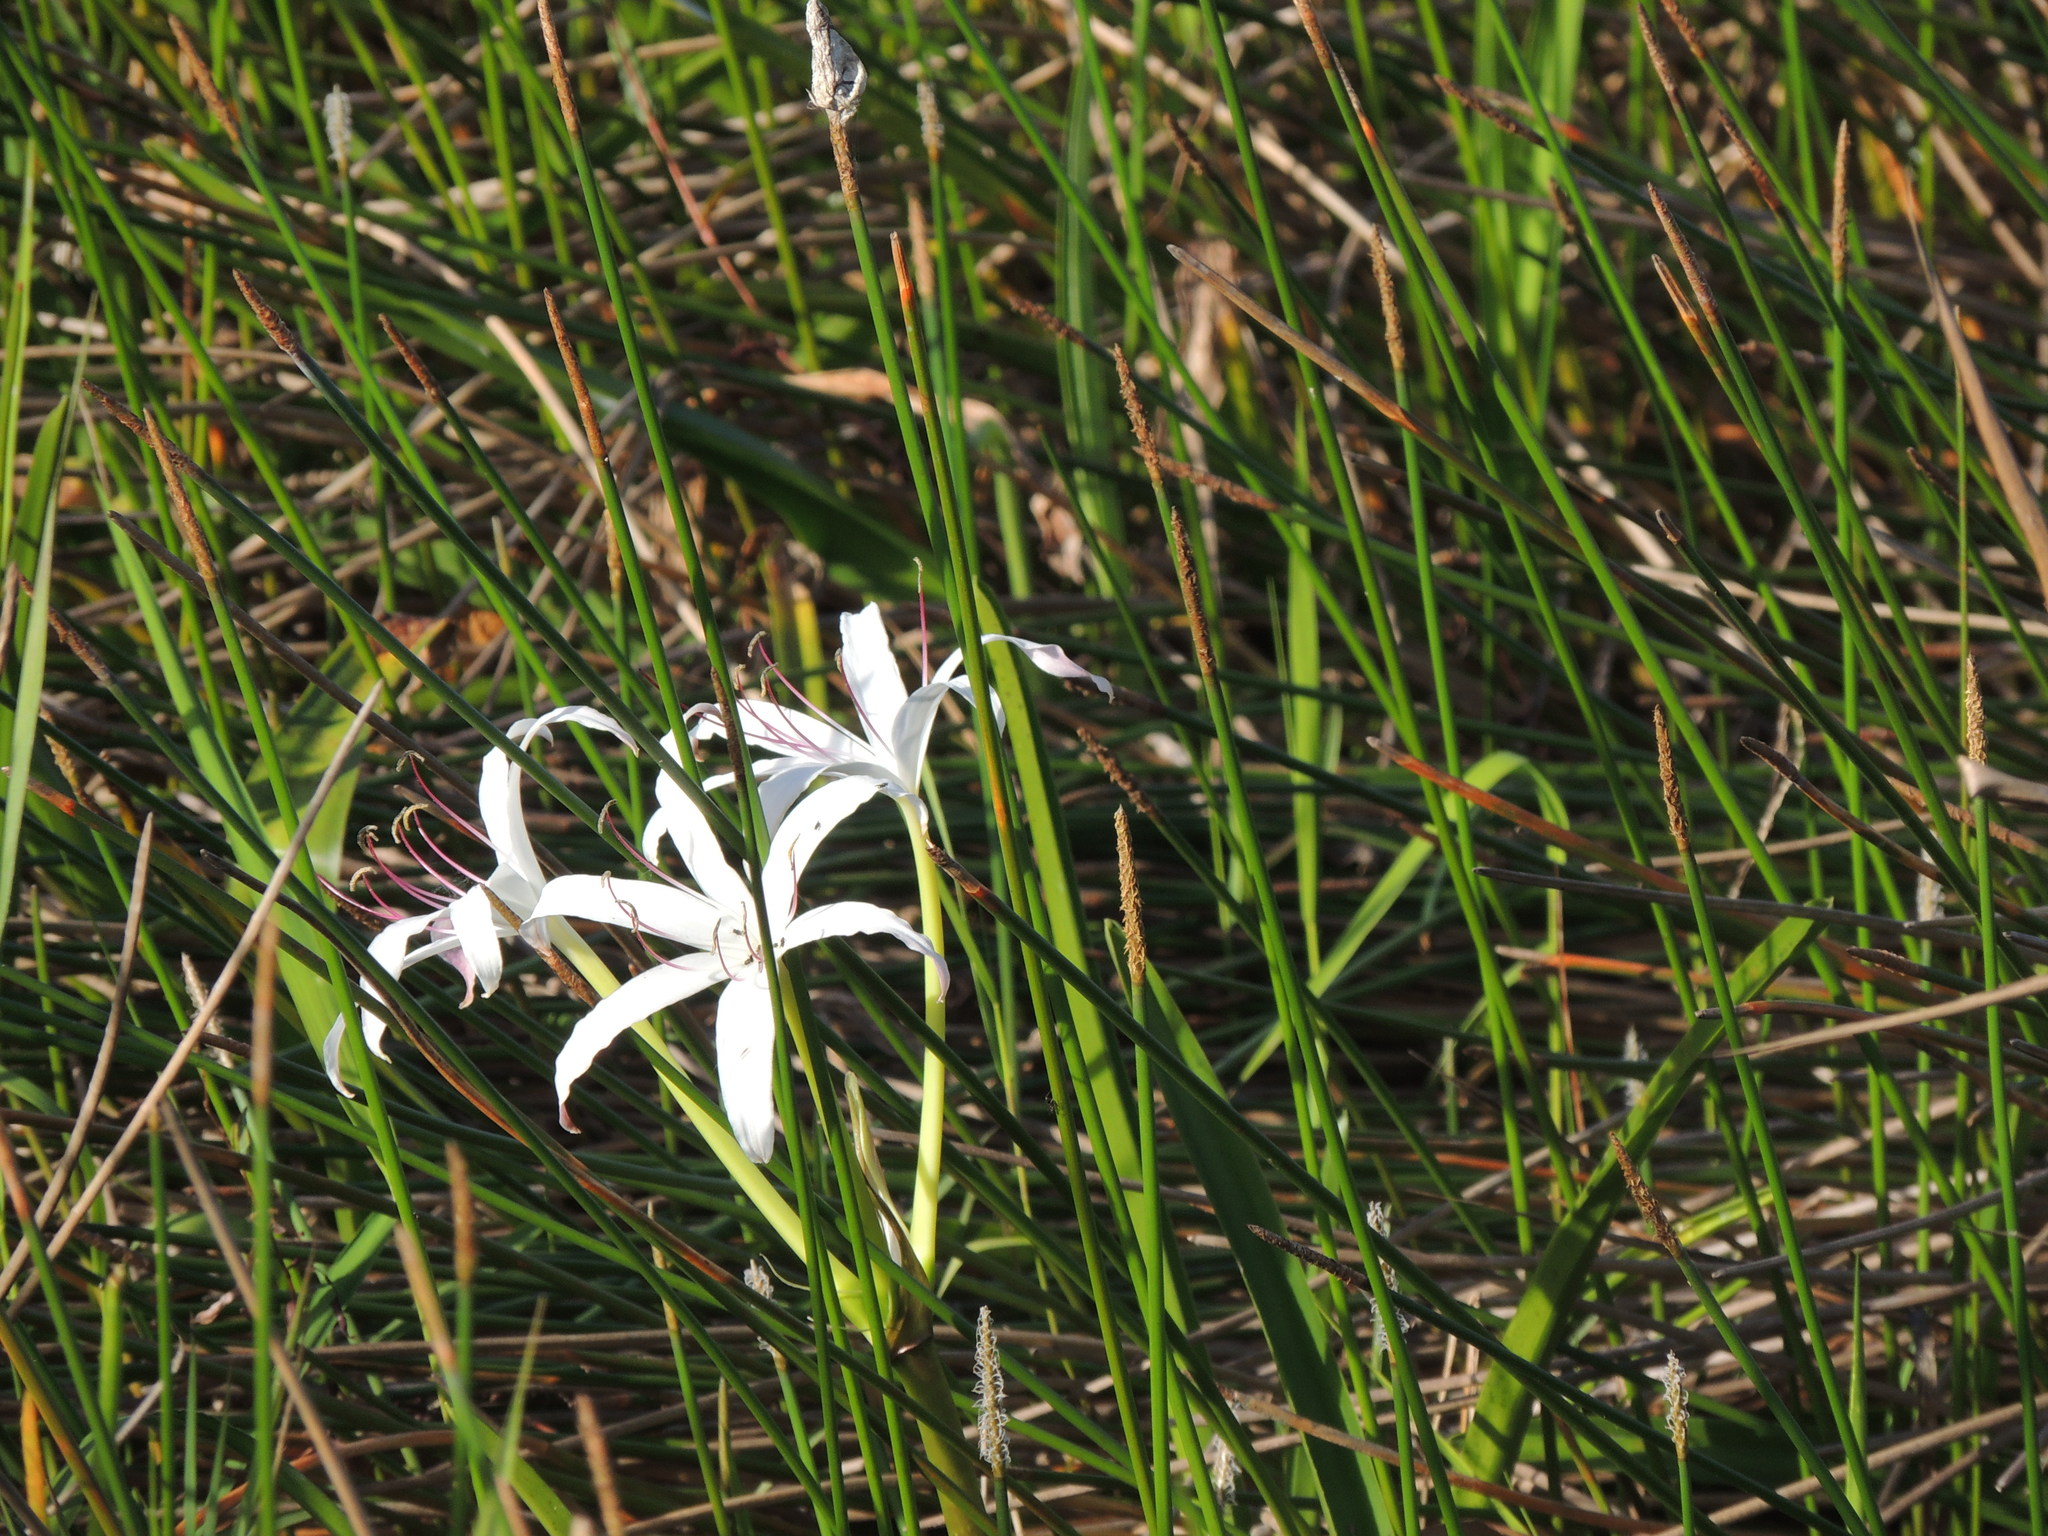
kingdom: Plantae
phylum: Tracheophyta
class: Liliopsida
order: Asparagales
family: Amaryllidaceae
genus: Crinum
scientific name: Crinum americanum
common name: Florida swamp-lily
